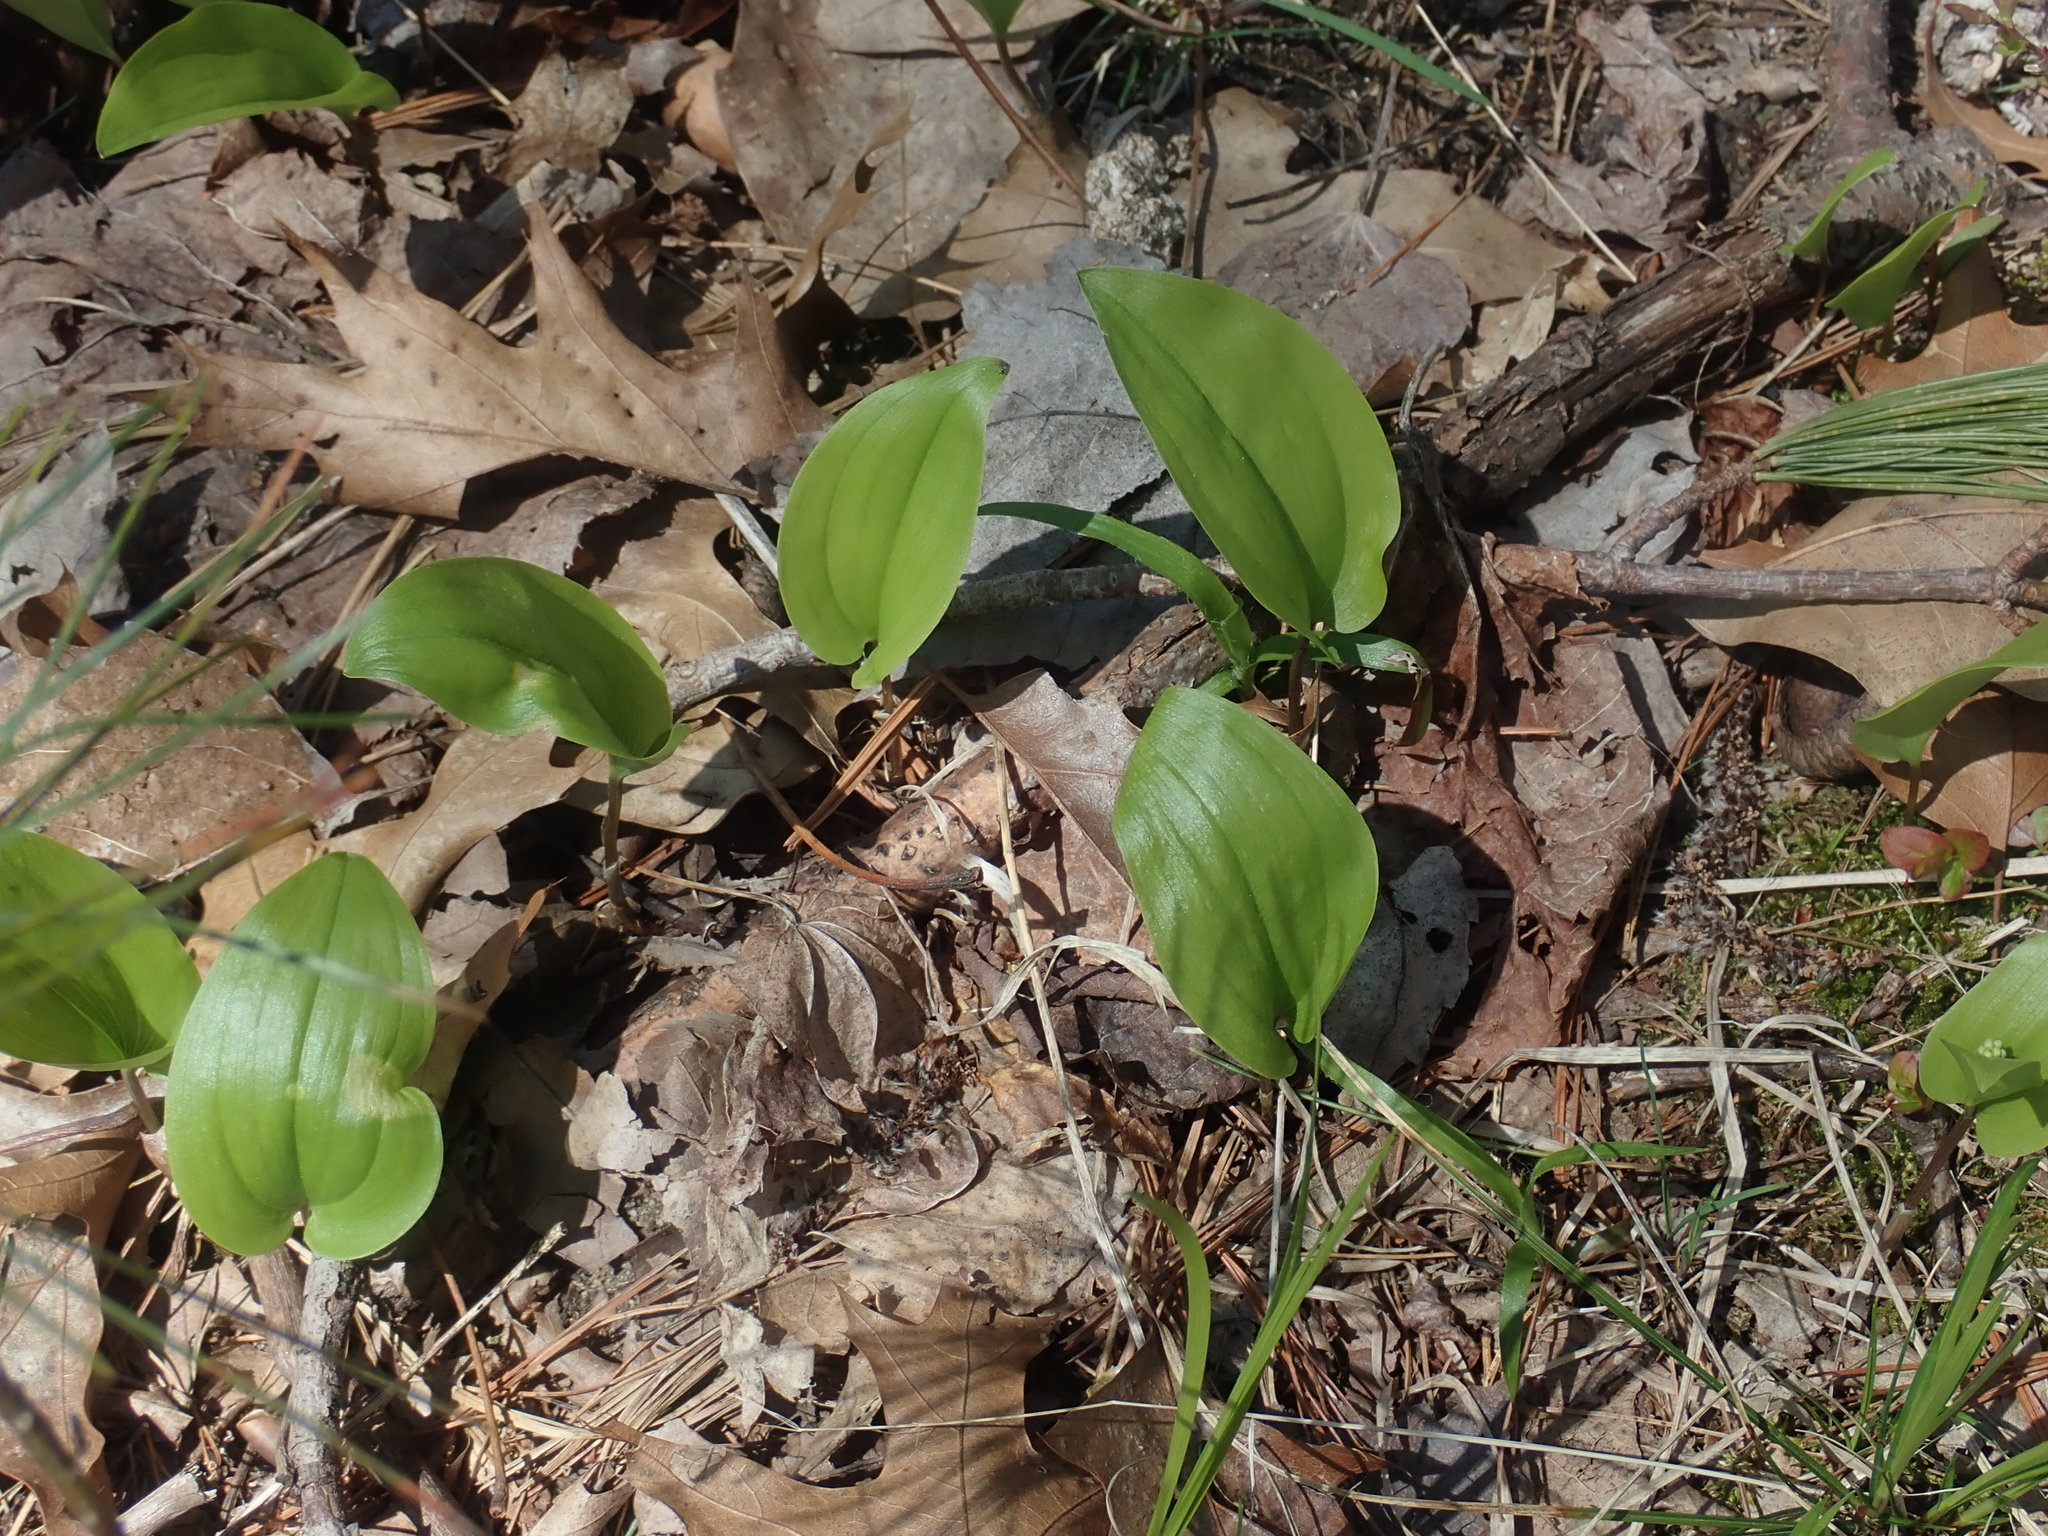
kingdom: Plantae
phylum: Tracheophyta
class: Liliopsida
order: Asparagales
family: Asparagaceae
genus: Maianthemum
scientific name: Maianthemum canadense
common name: False lily-of-the-valley
